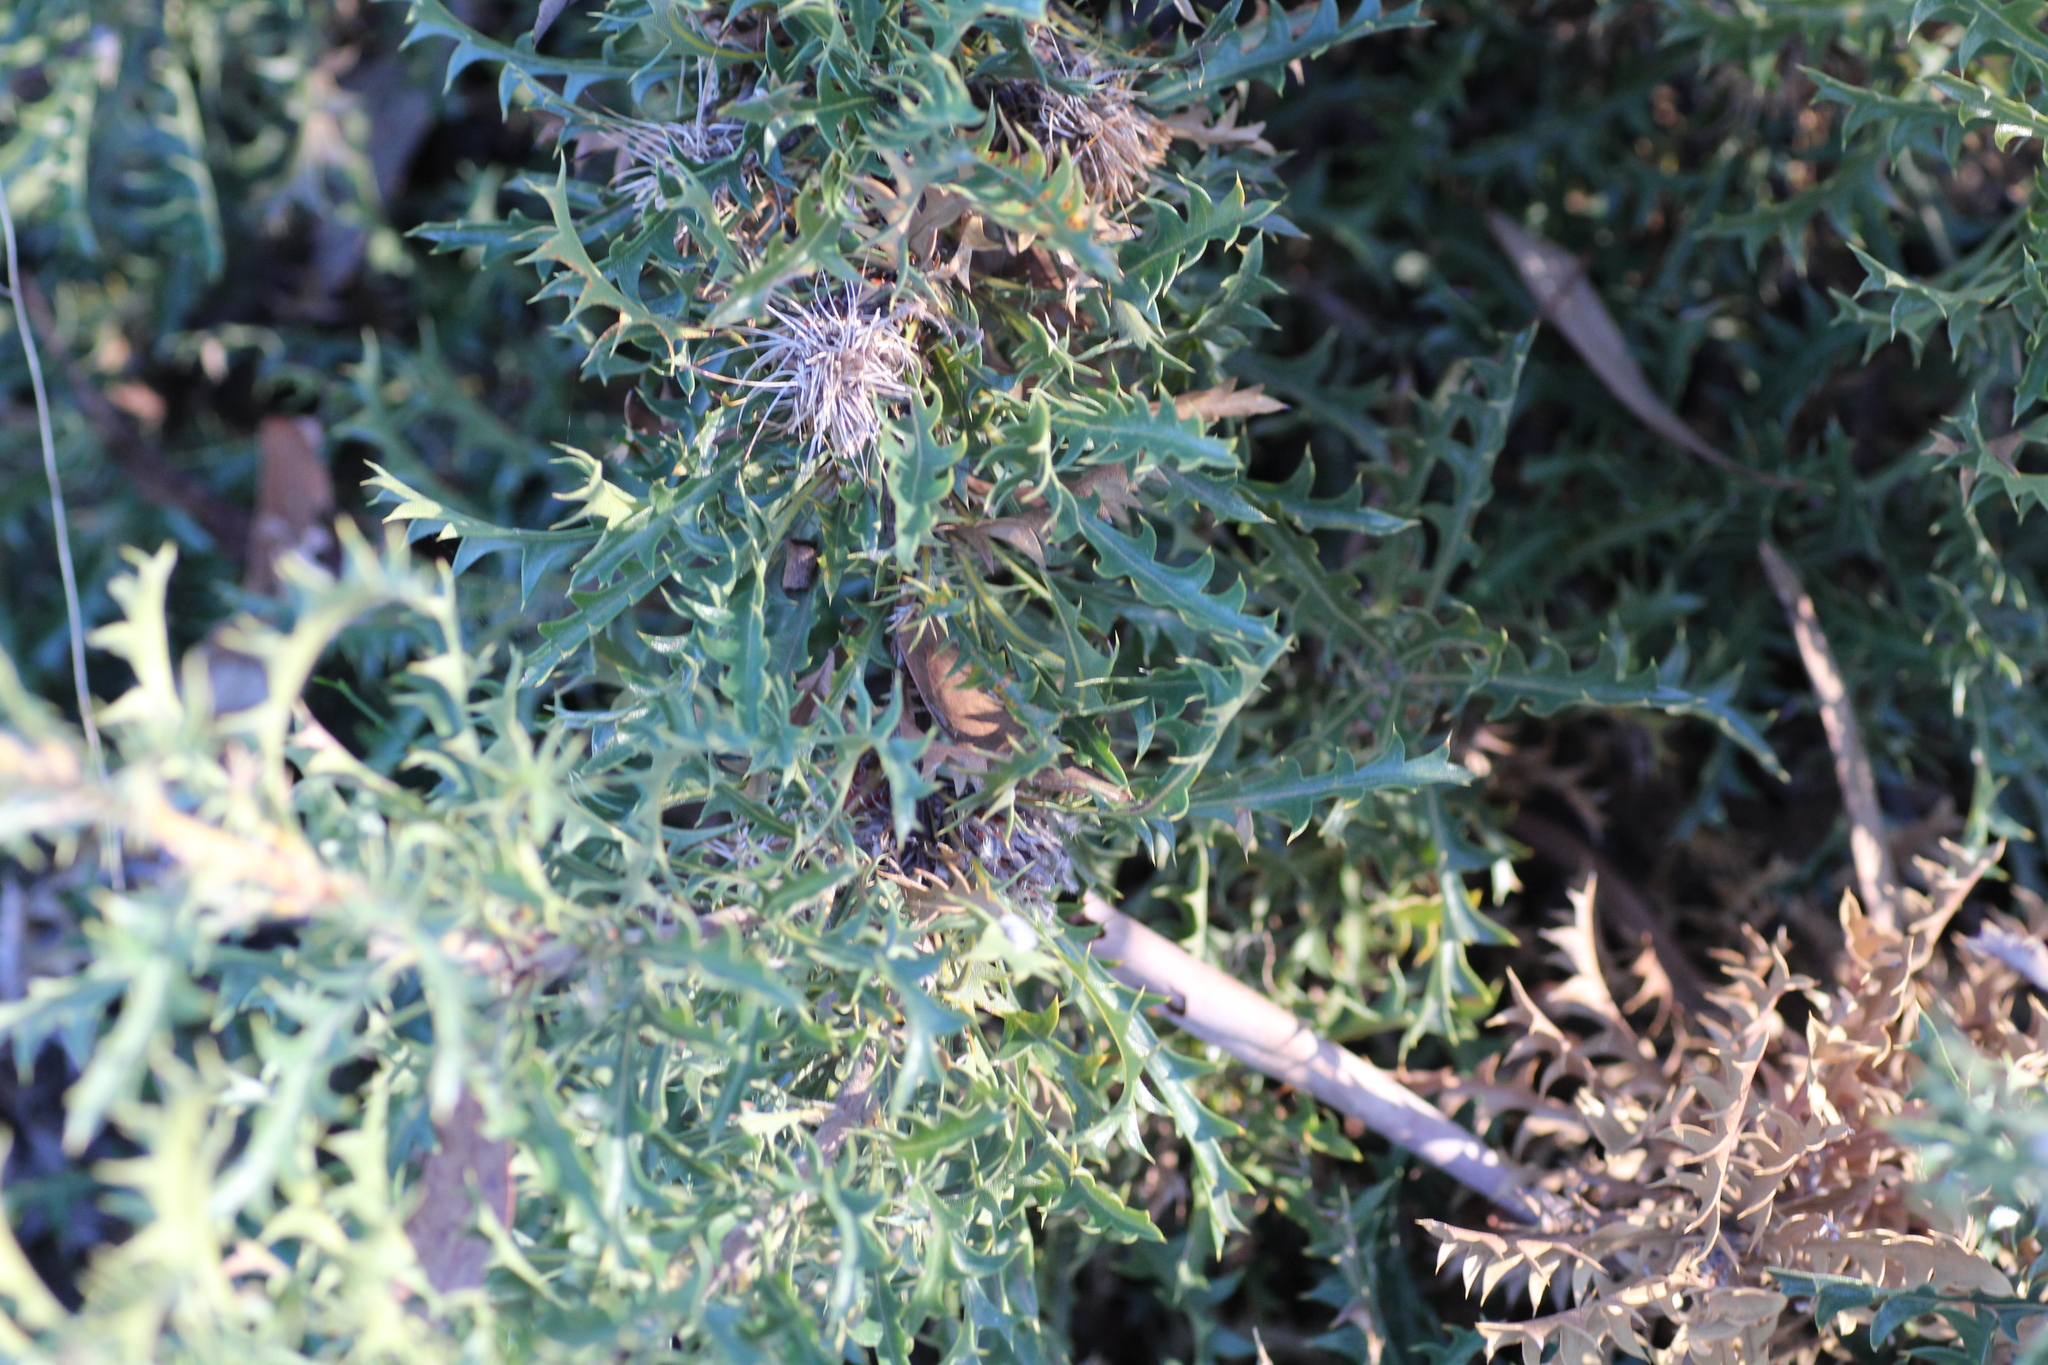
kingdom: Plantae
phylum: Tracheophyta
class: Magnoliopsida
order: Proteales
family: Proteaceae
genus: Banksia
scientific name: Banksia armata
